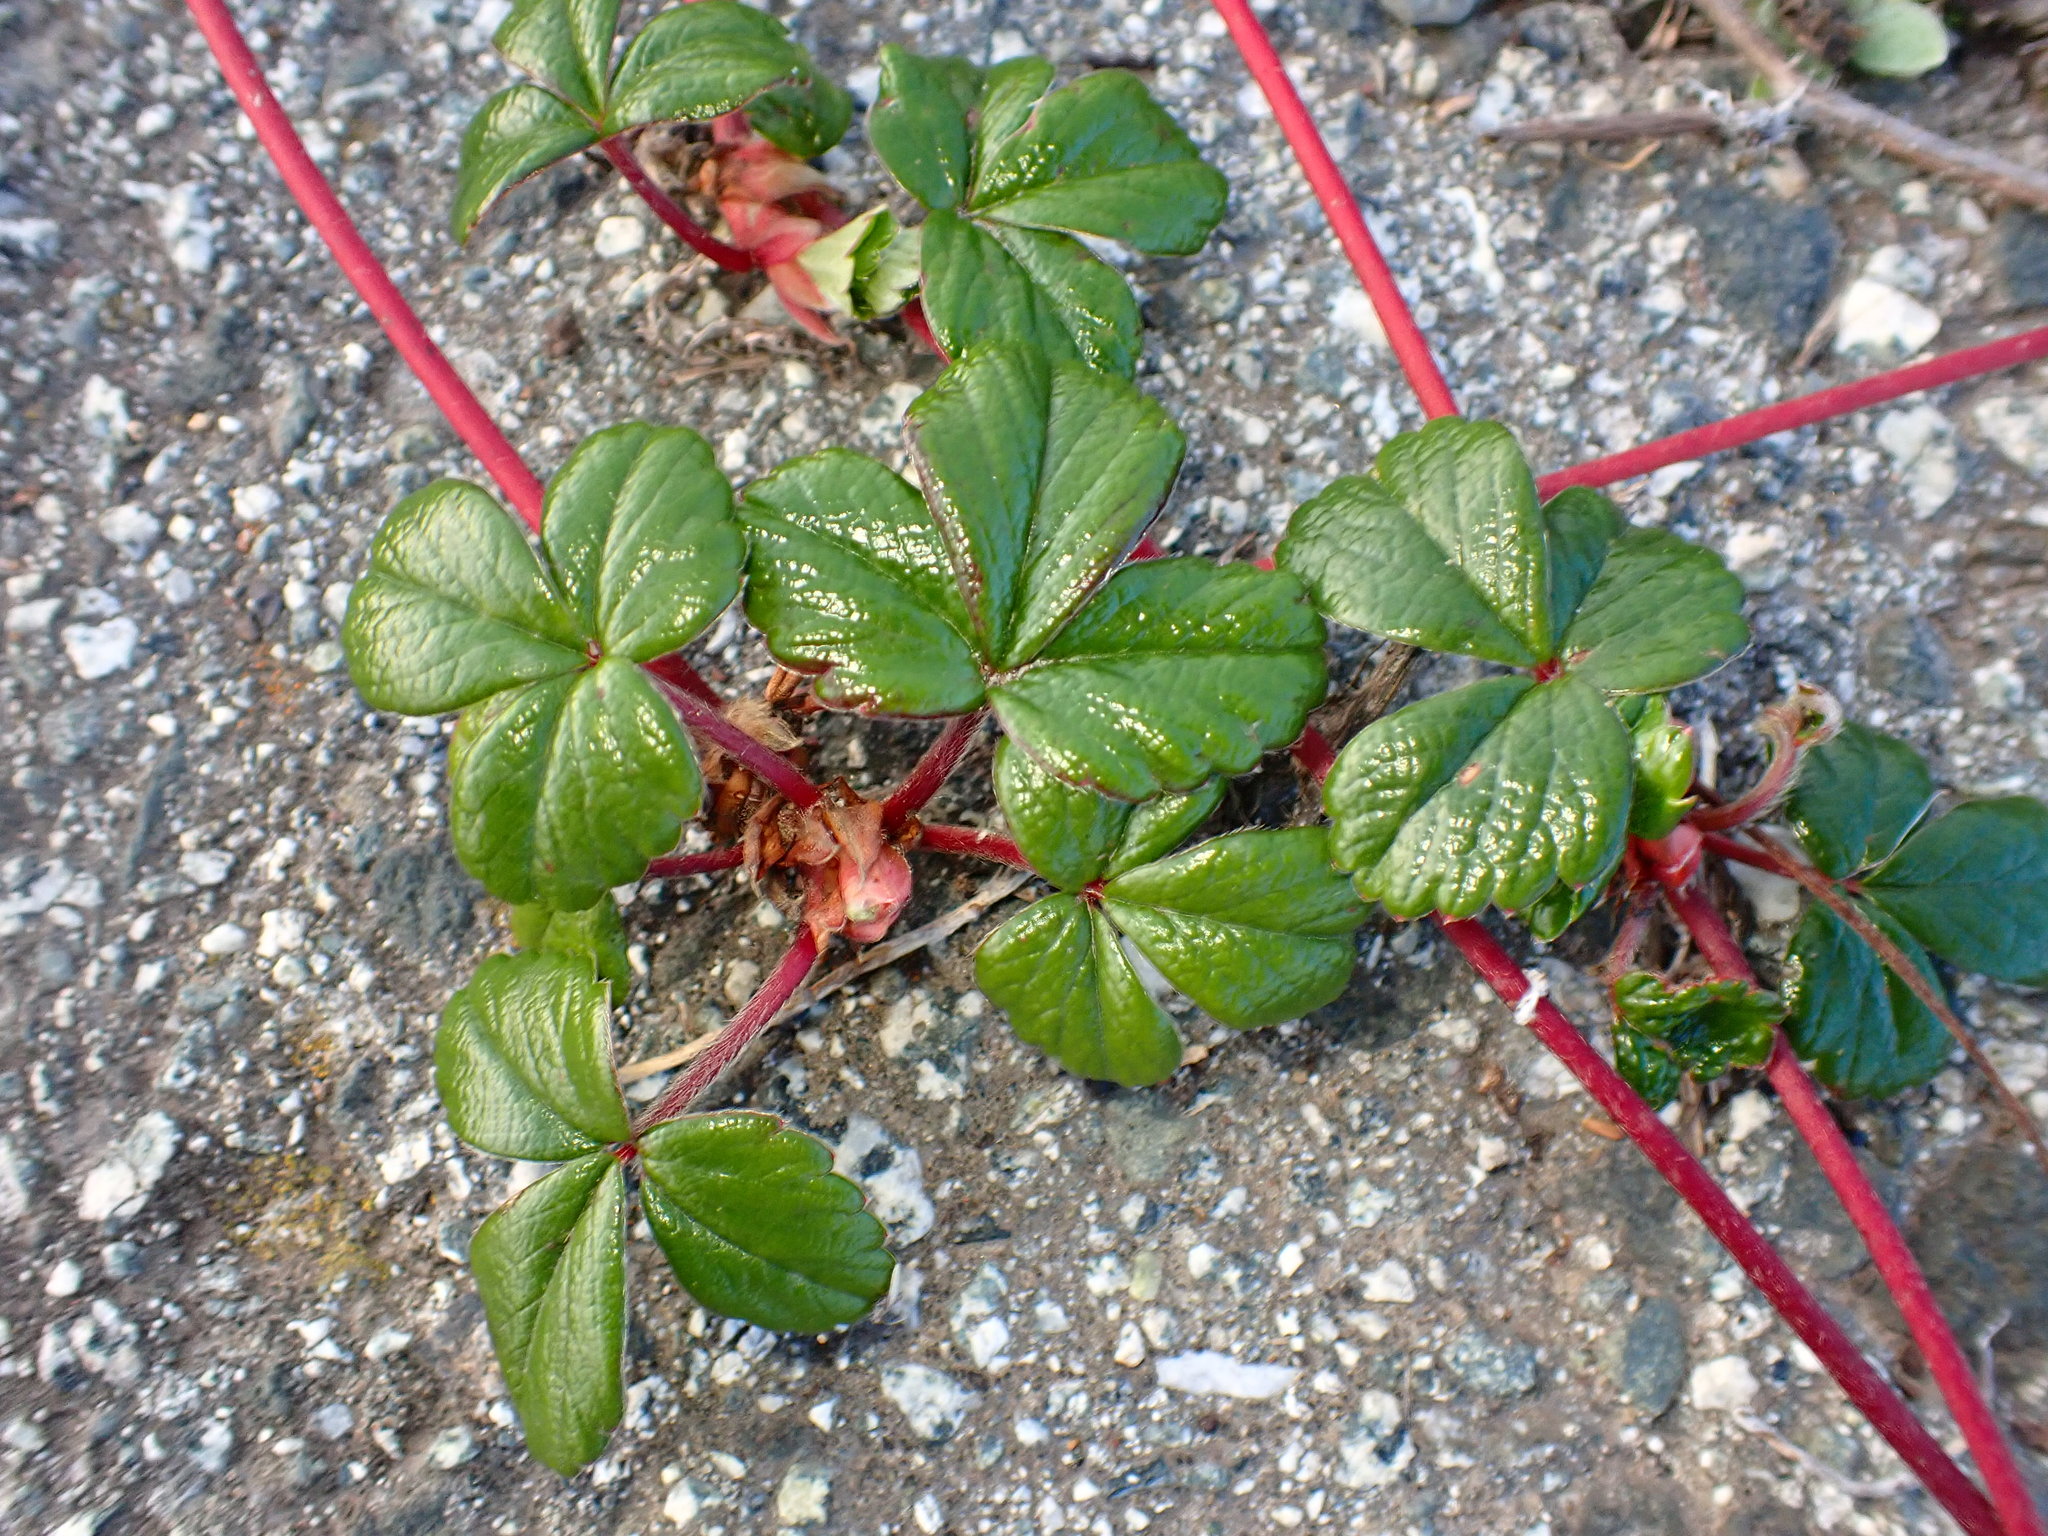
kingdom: Plantae
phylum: Tracheophyta
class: Magnoliopsida
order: Rosales
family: Rosaceae
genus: Fragaria
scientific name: Fragaria chiloensis
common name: Beach strawberry
